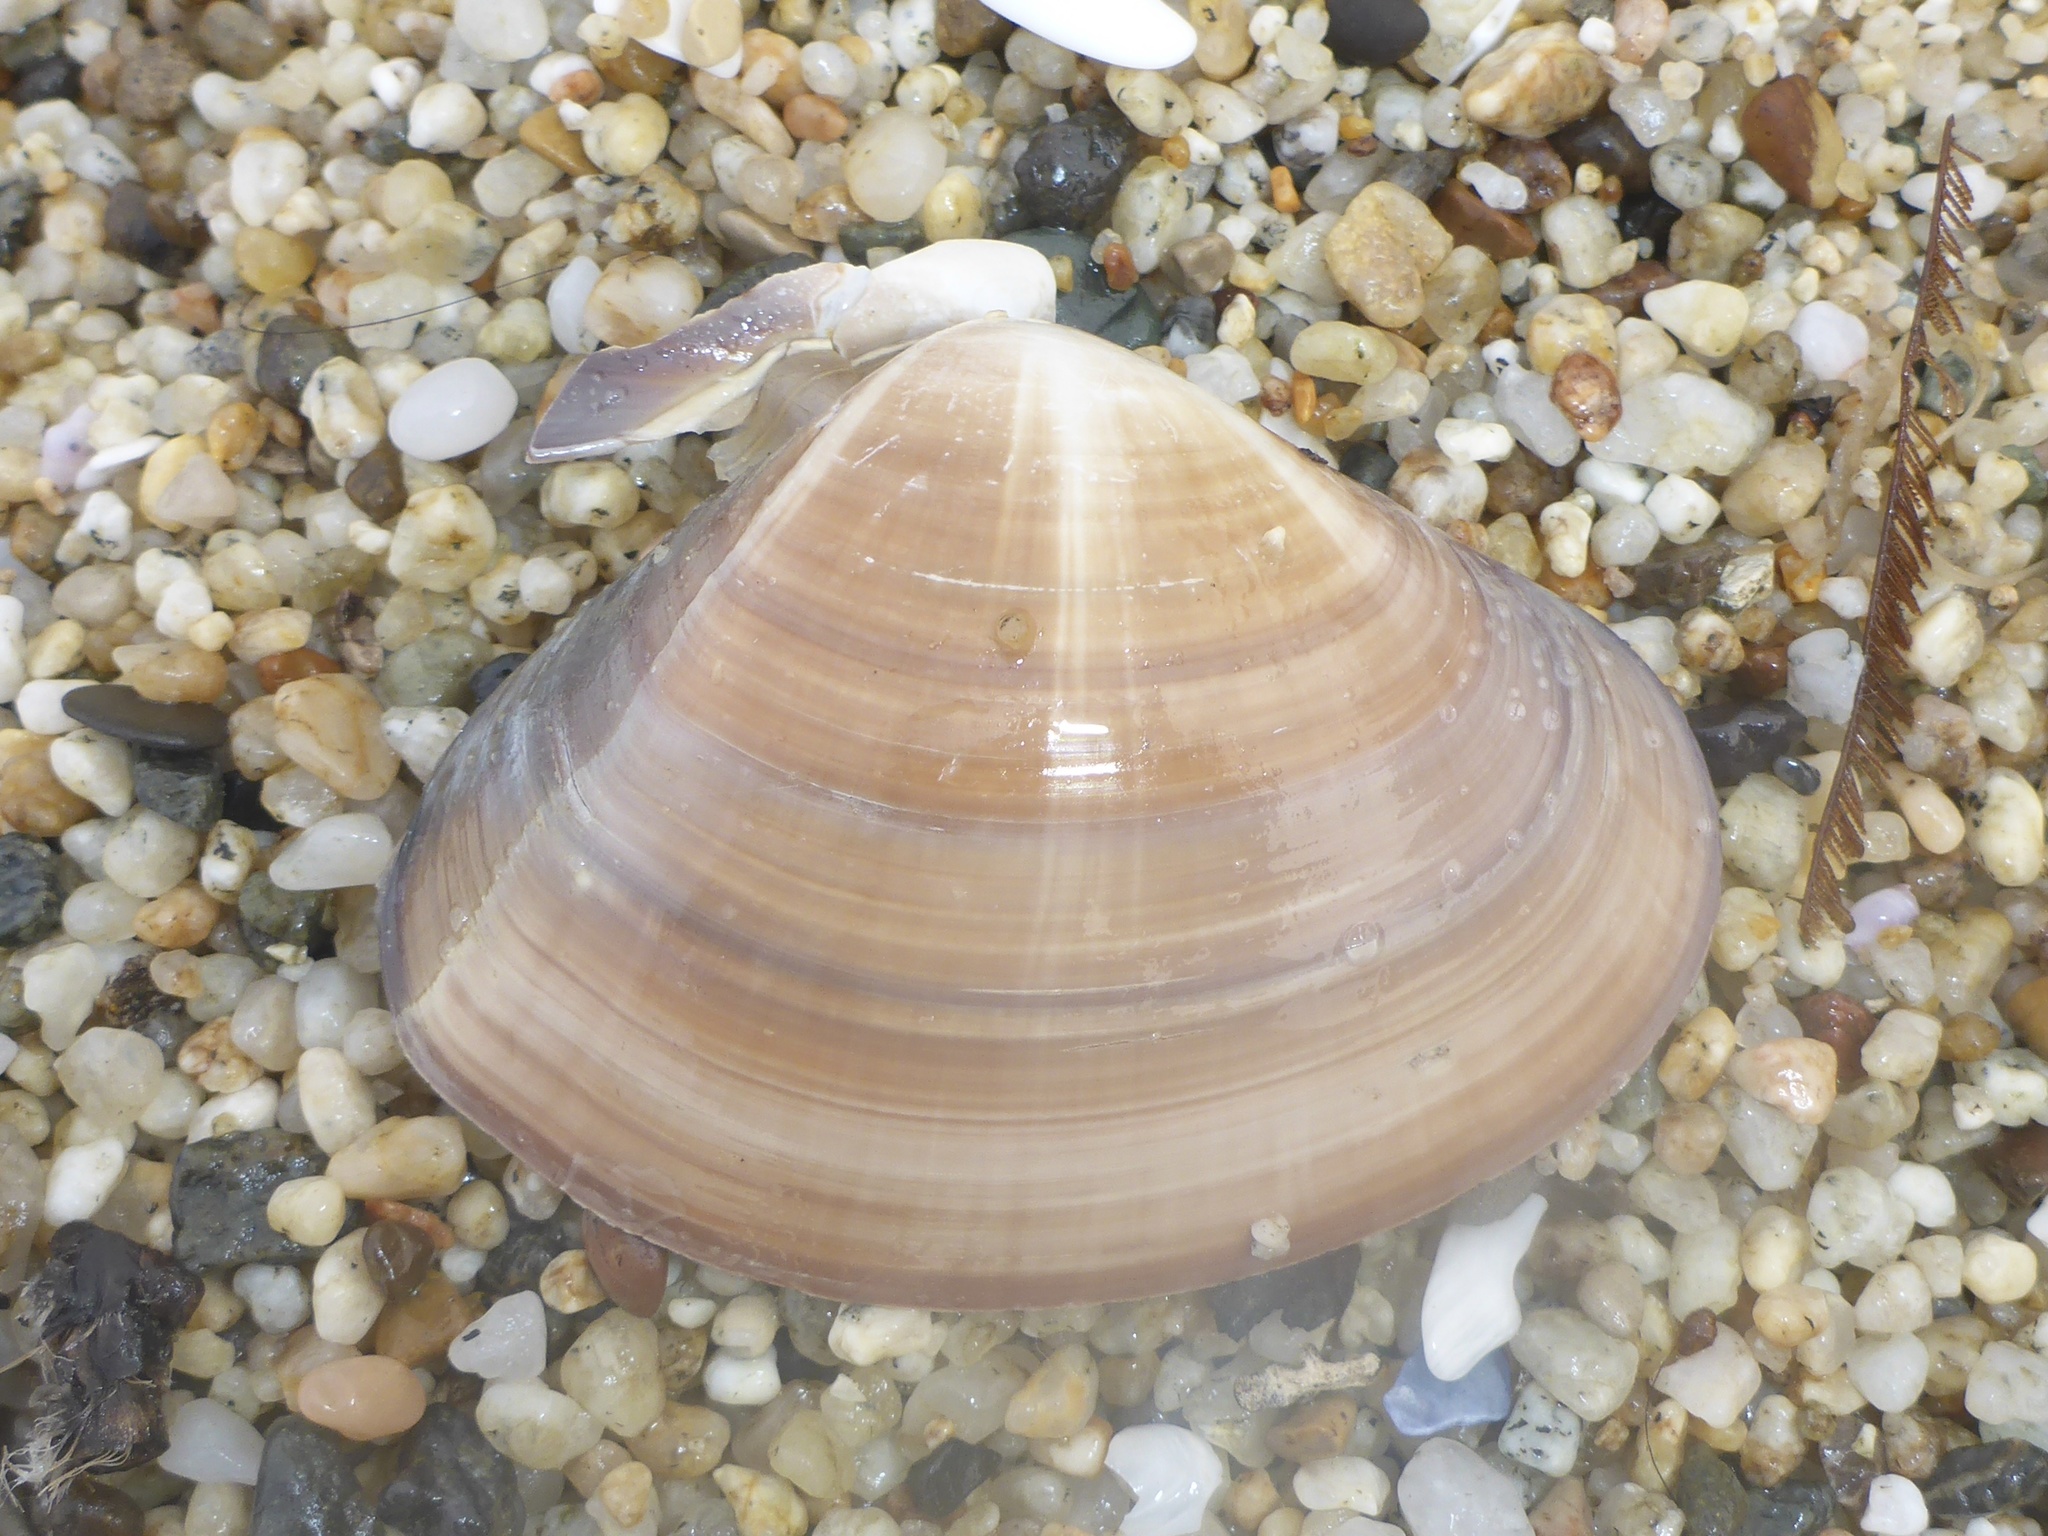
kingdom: Animalia
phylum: Mollusca
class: Bivalvia
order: Venerida
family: Veneridae
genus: Tivela
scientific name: Tivela stultorum
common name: Pismo clam
